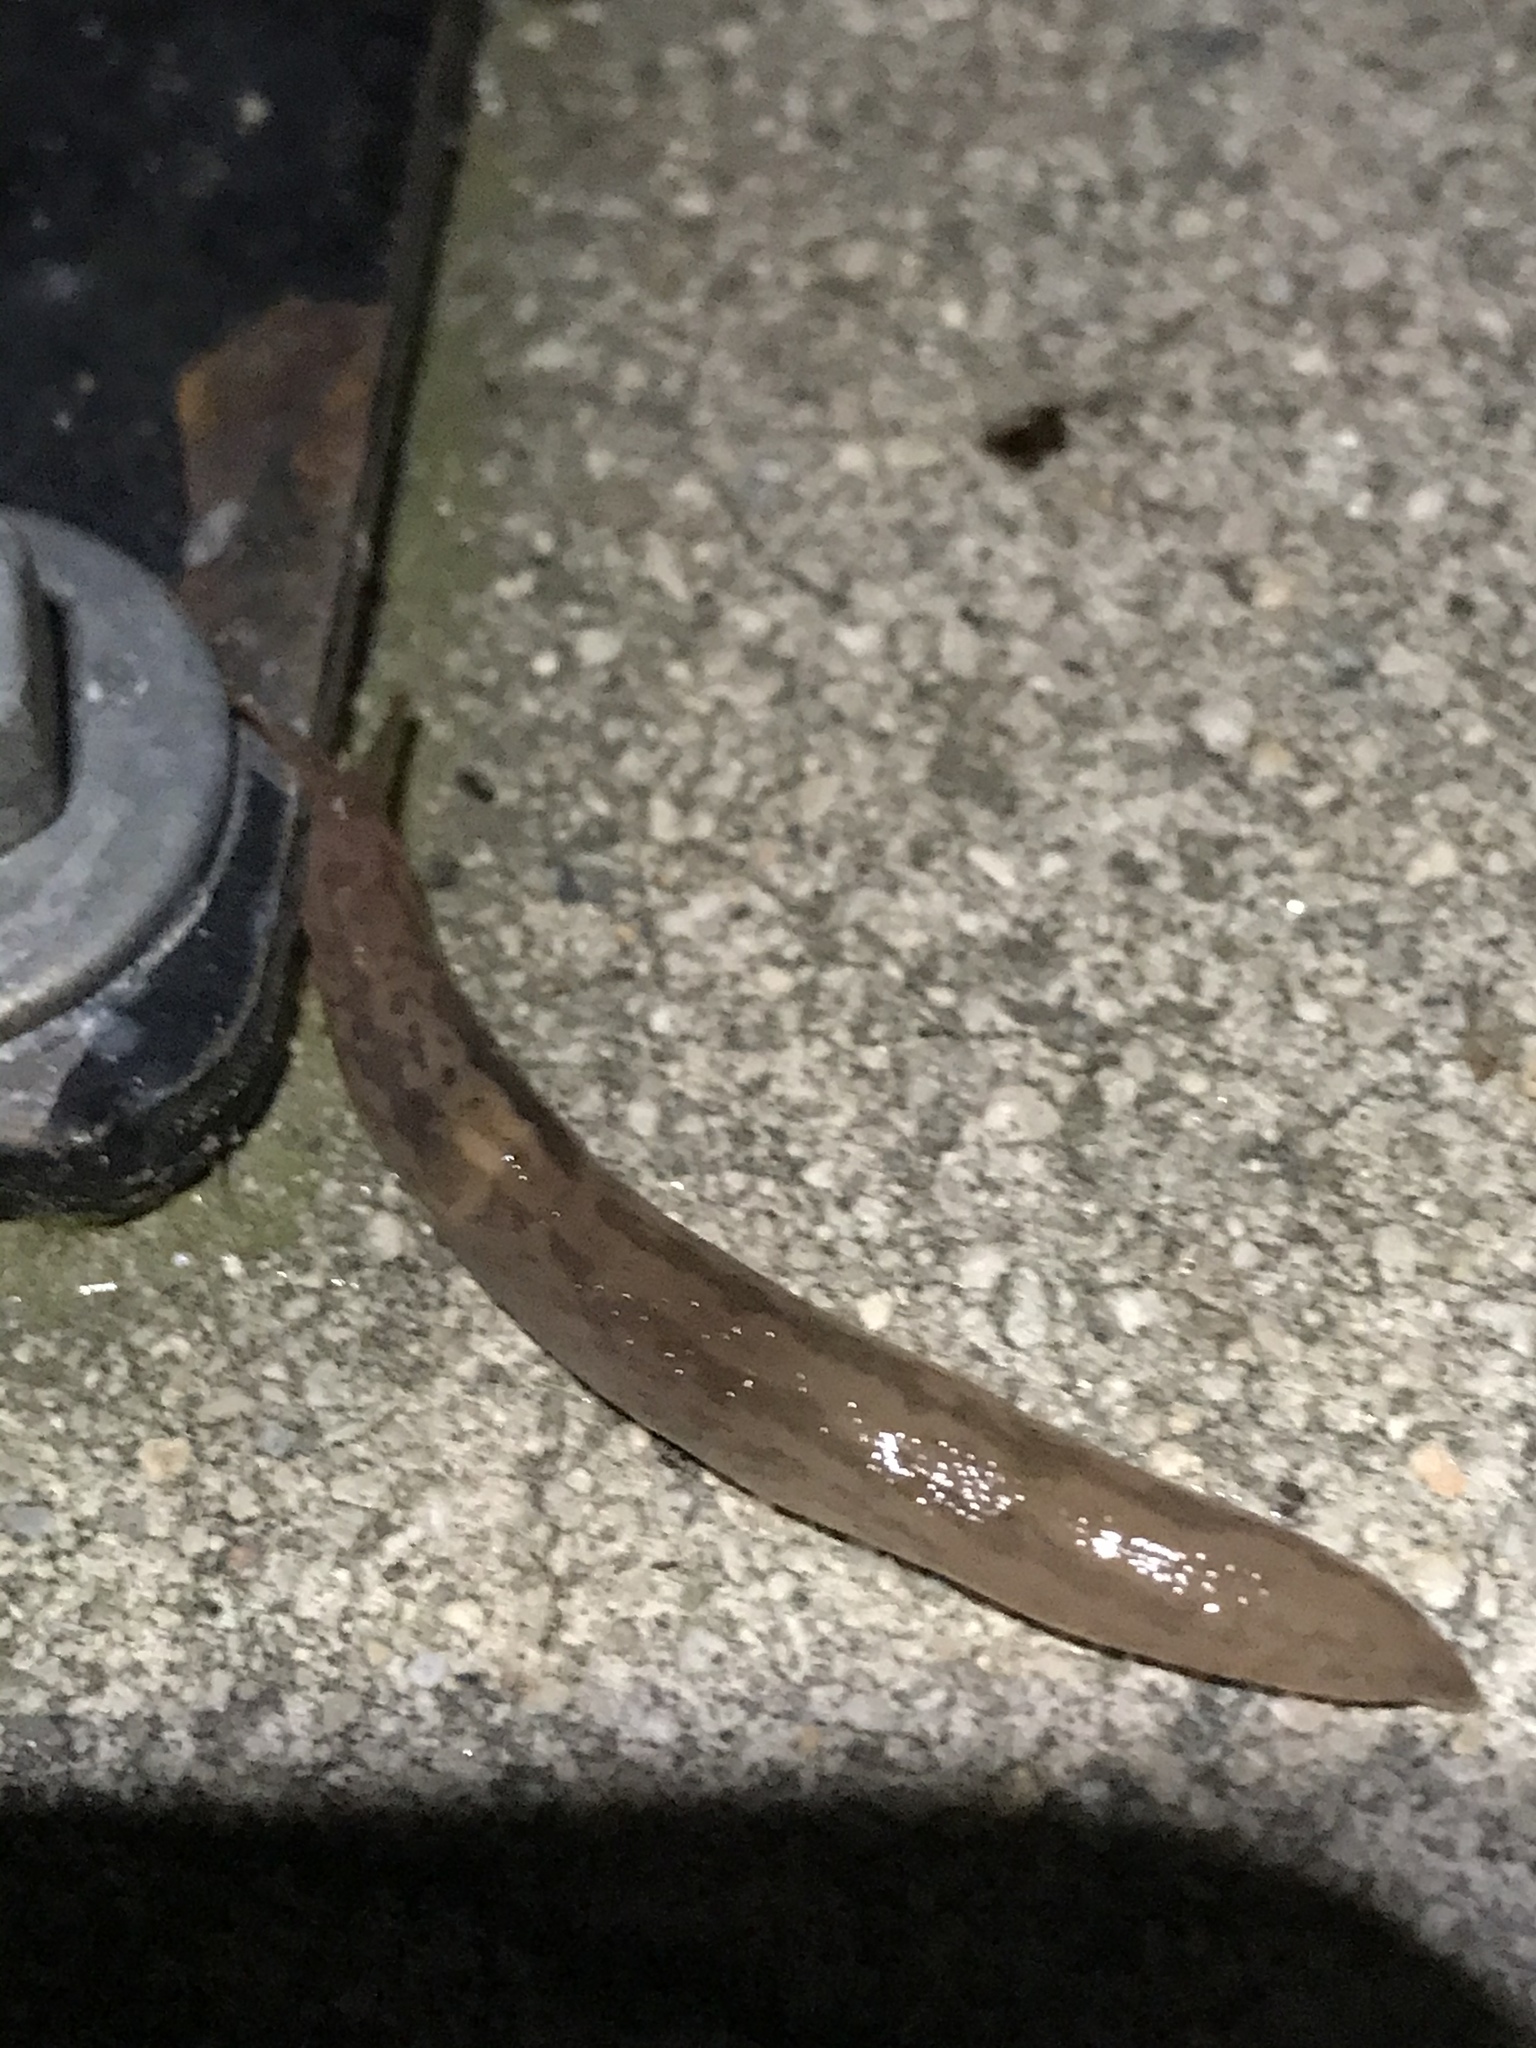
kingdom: Animalia
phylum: Mollusca
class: Gastropoda
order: Stylommatophora
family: Limacidae
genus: Ambigolimax
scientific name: Ambigolimax
